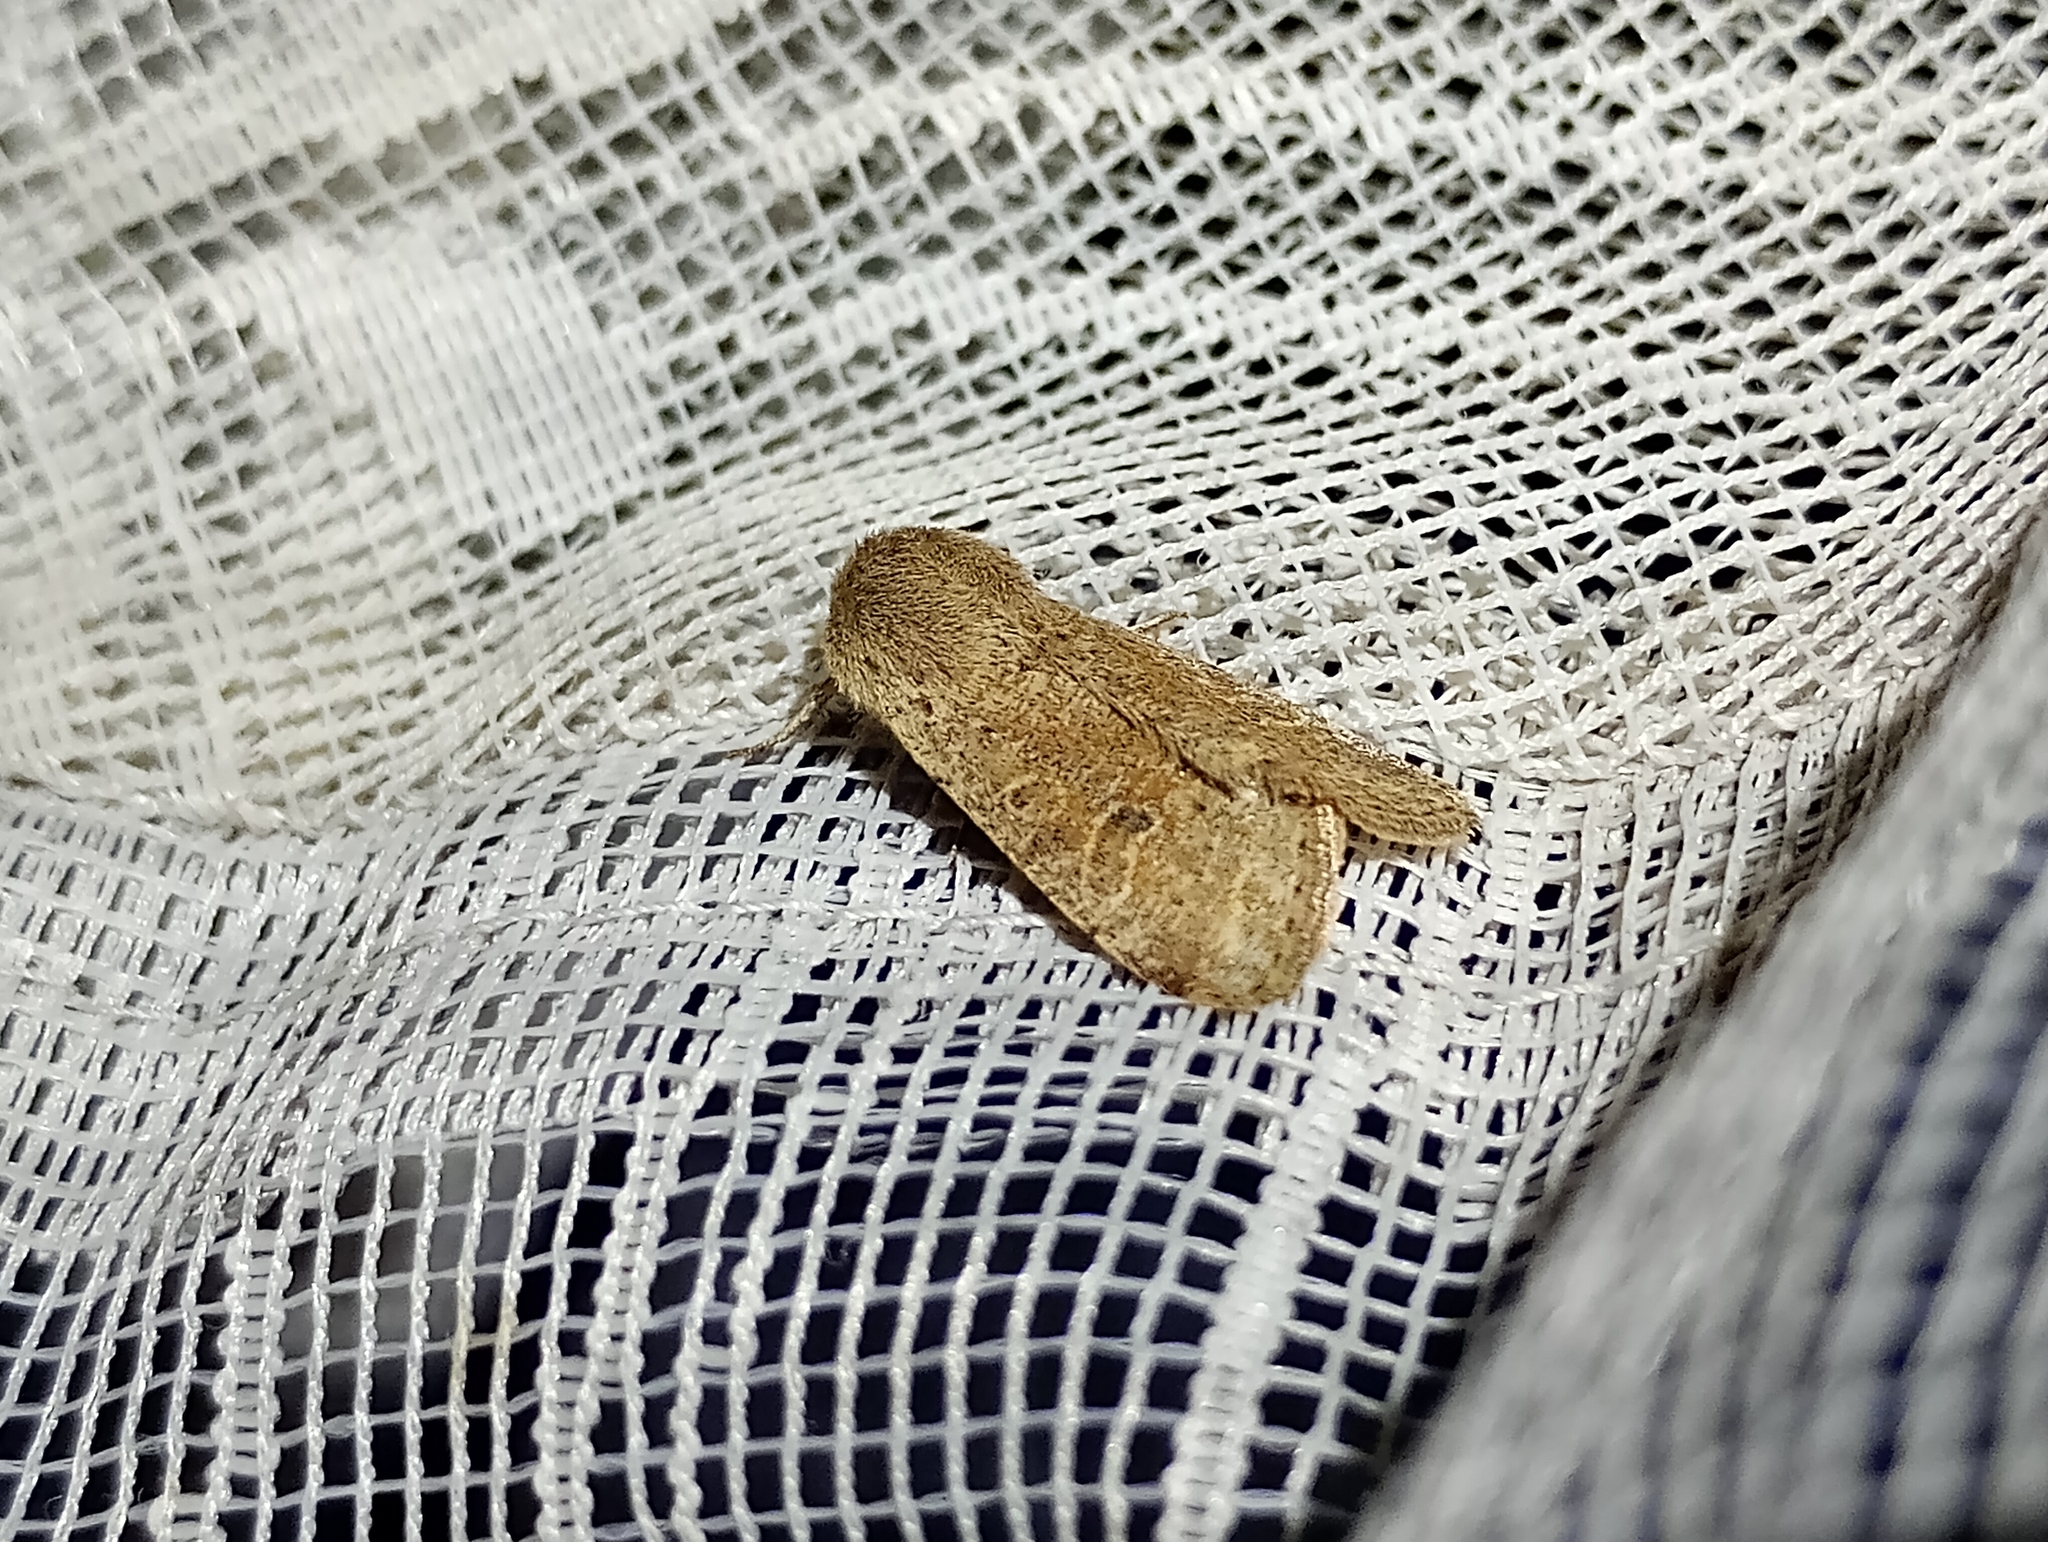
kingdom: Animalia
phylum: Arthropoda
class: Insecta
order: Lepidoptera
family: Noctuidae
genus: Orthosia
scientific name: Orthosia cruda
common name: Small quaker
